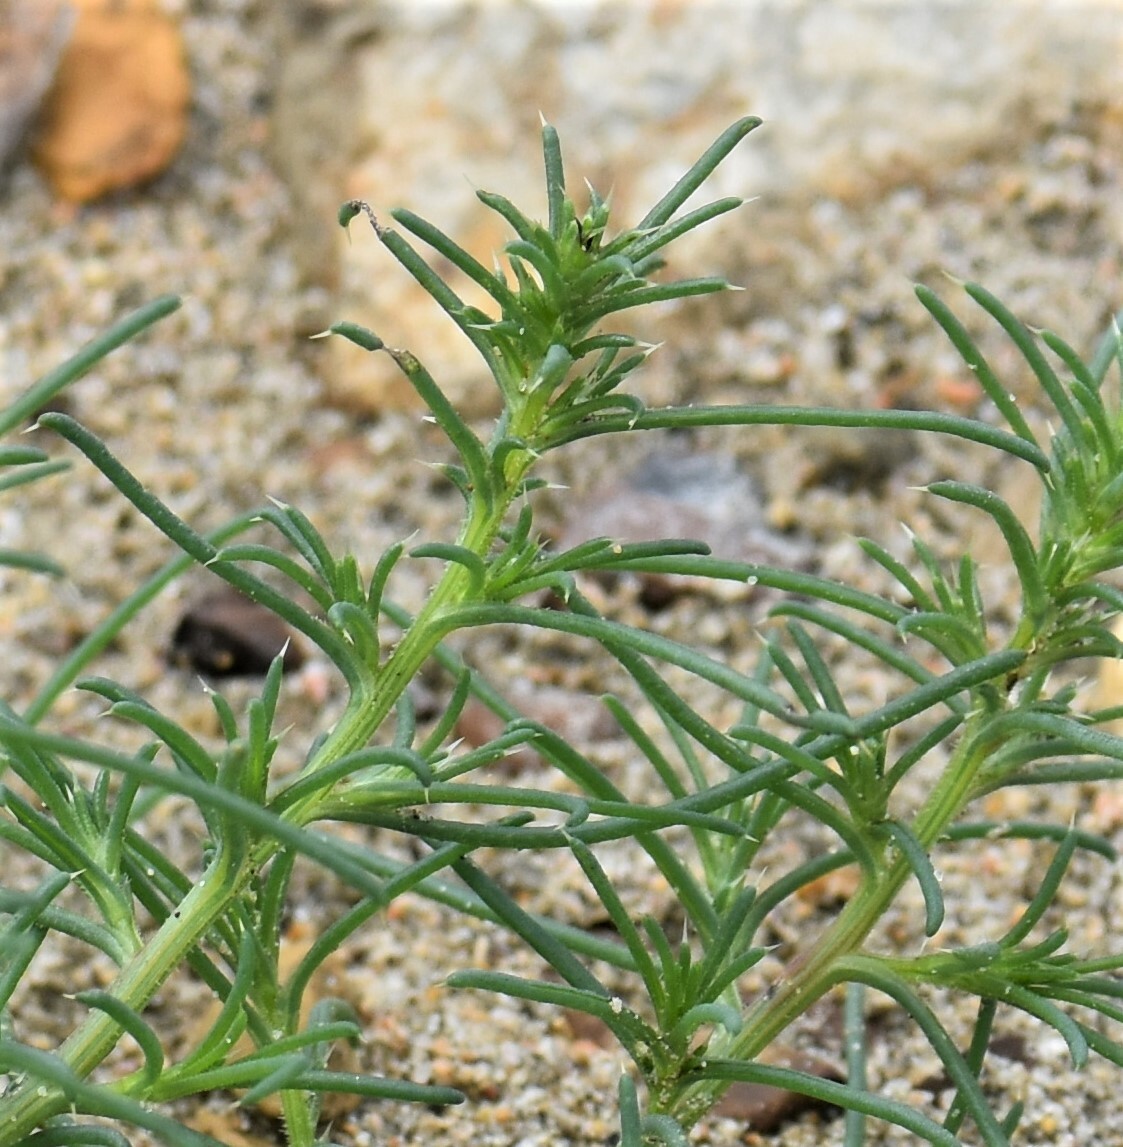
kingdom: Plantae
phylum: Tracheophyta
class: Magnoliopsida
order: Caryophyllales
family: Amaranthaceae
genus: Salsola
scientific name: Salsola tragus
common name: Prickly russian thistle
